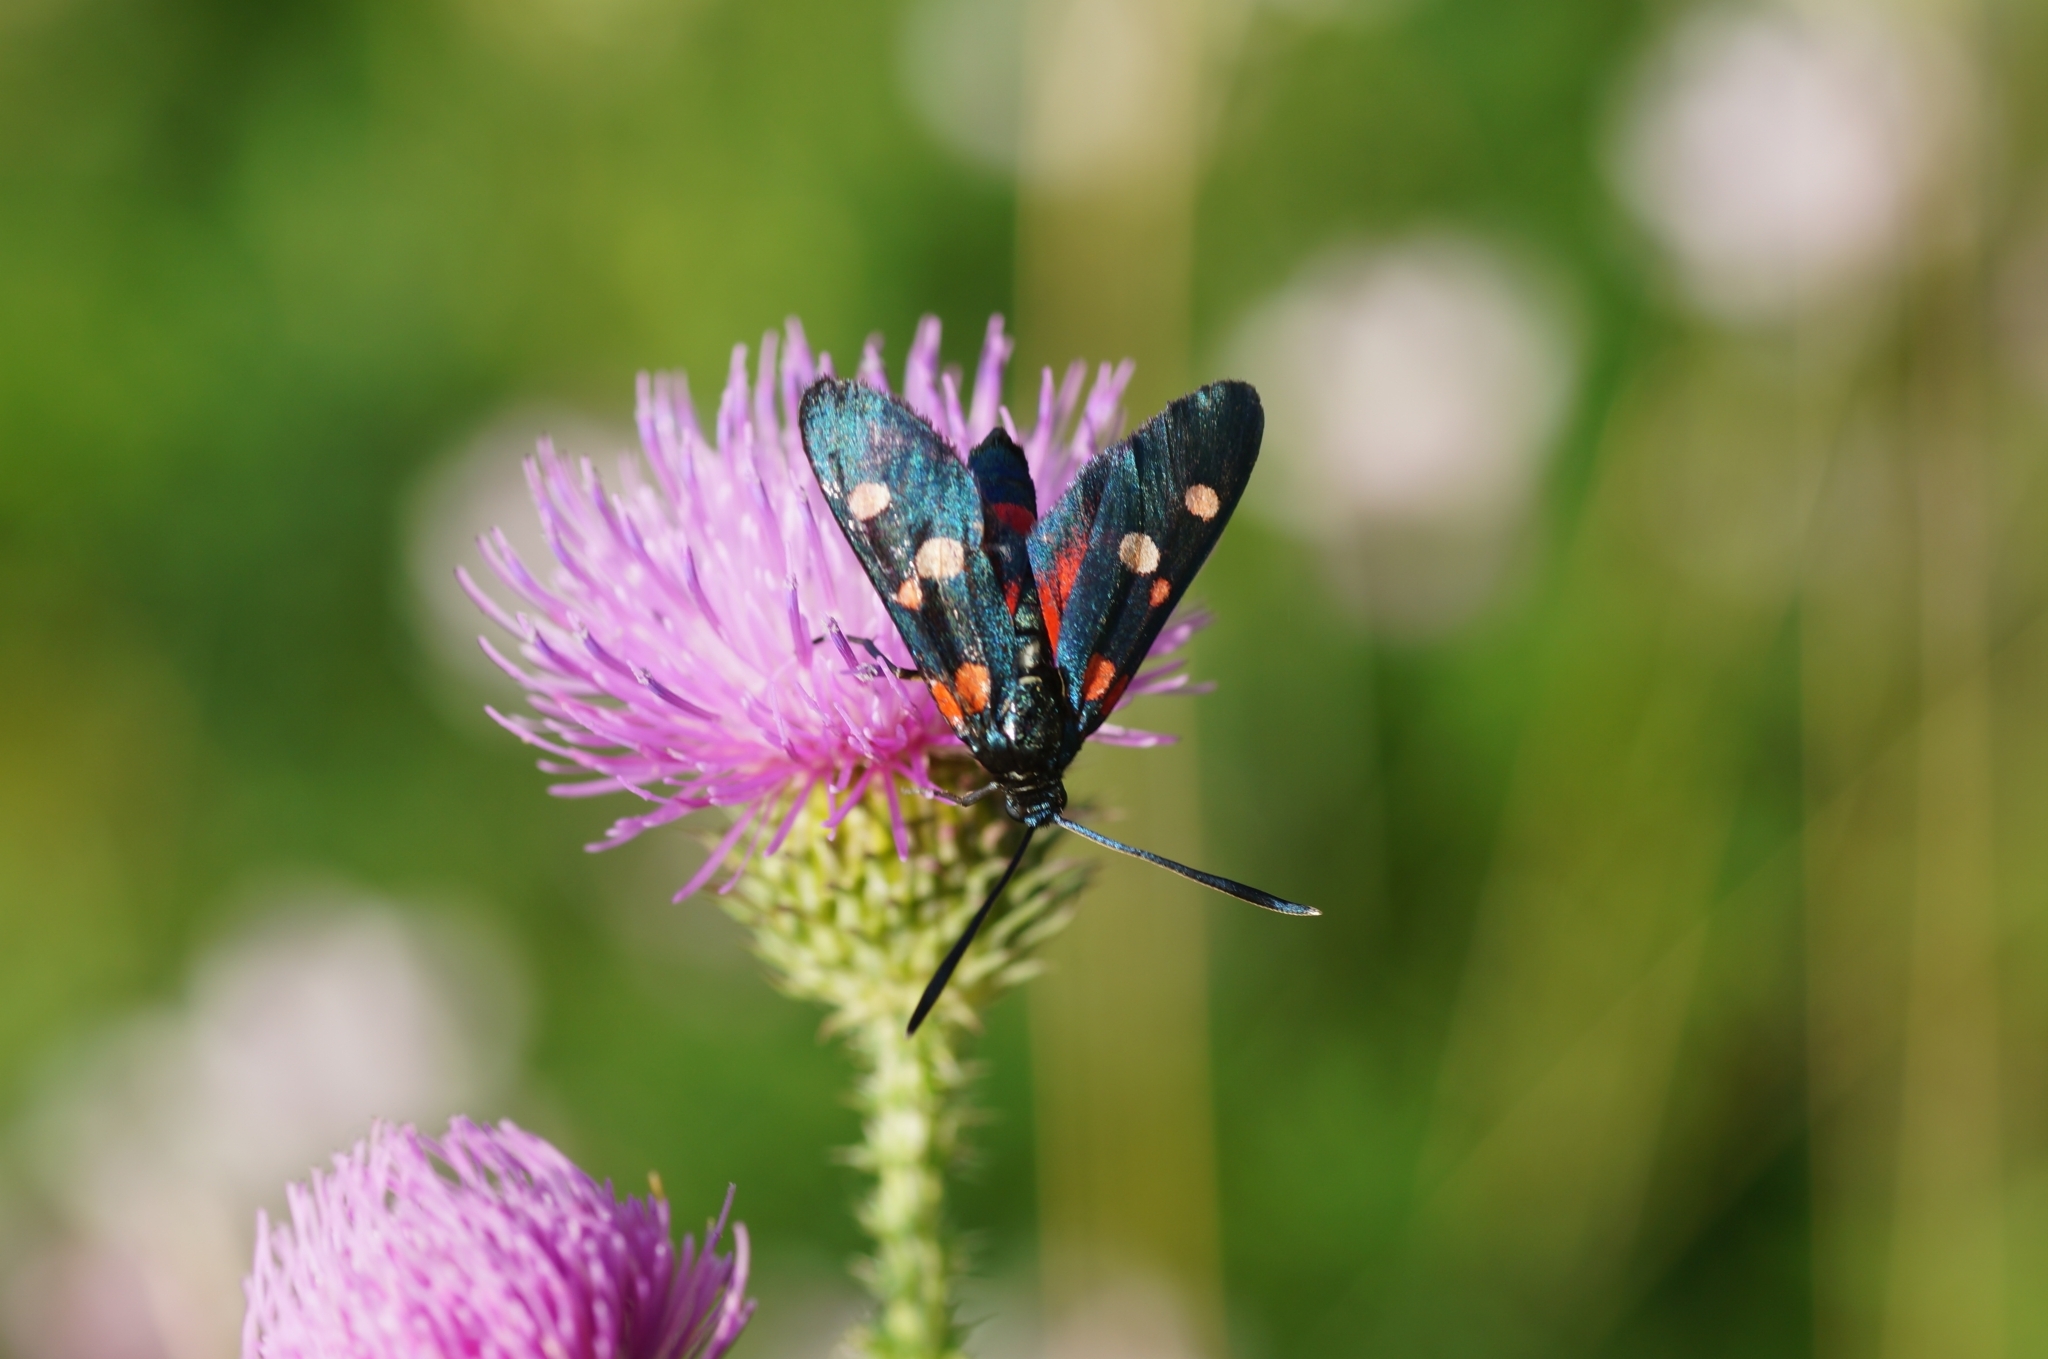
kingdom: Animalia
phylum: Arthropoda
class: Insecta
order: Lepidoptera
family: Zygaenidae
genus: Zygaena
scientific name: Zygaena ephialtes
